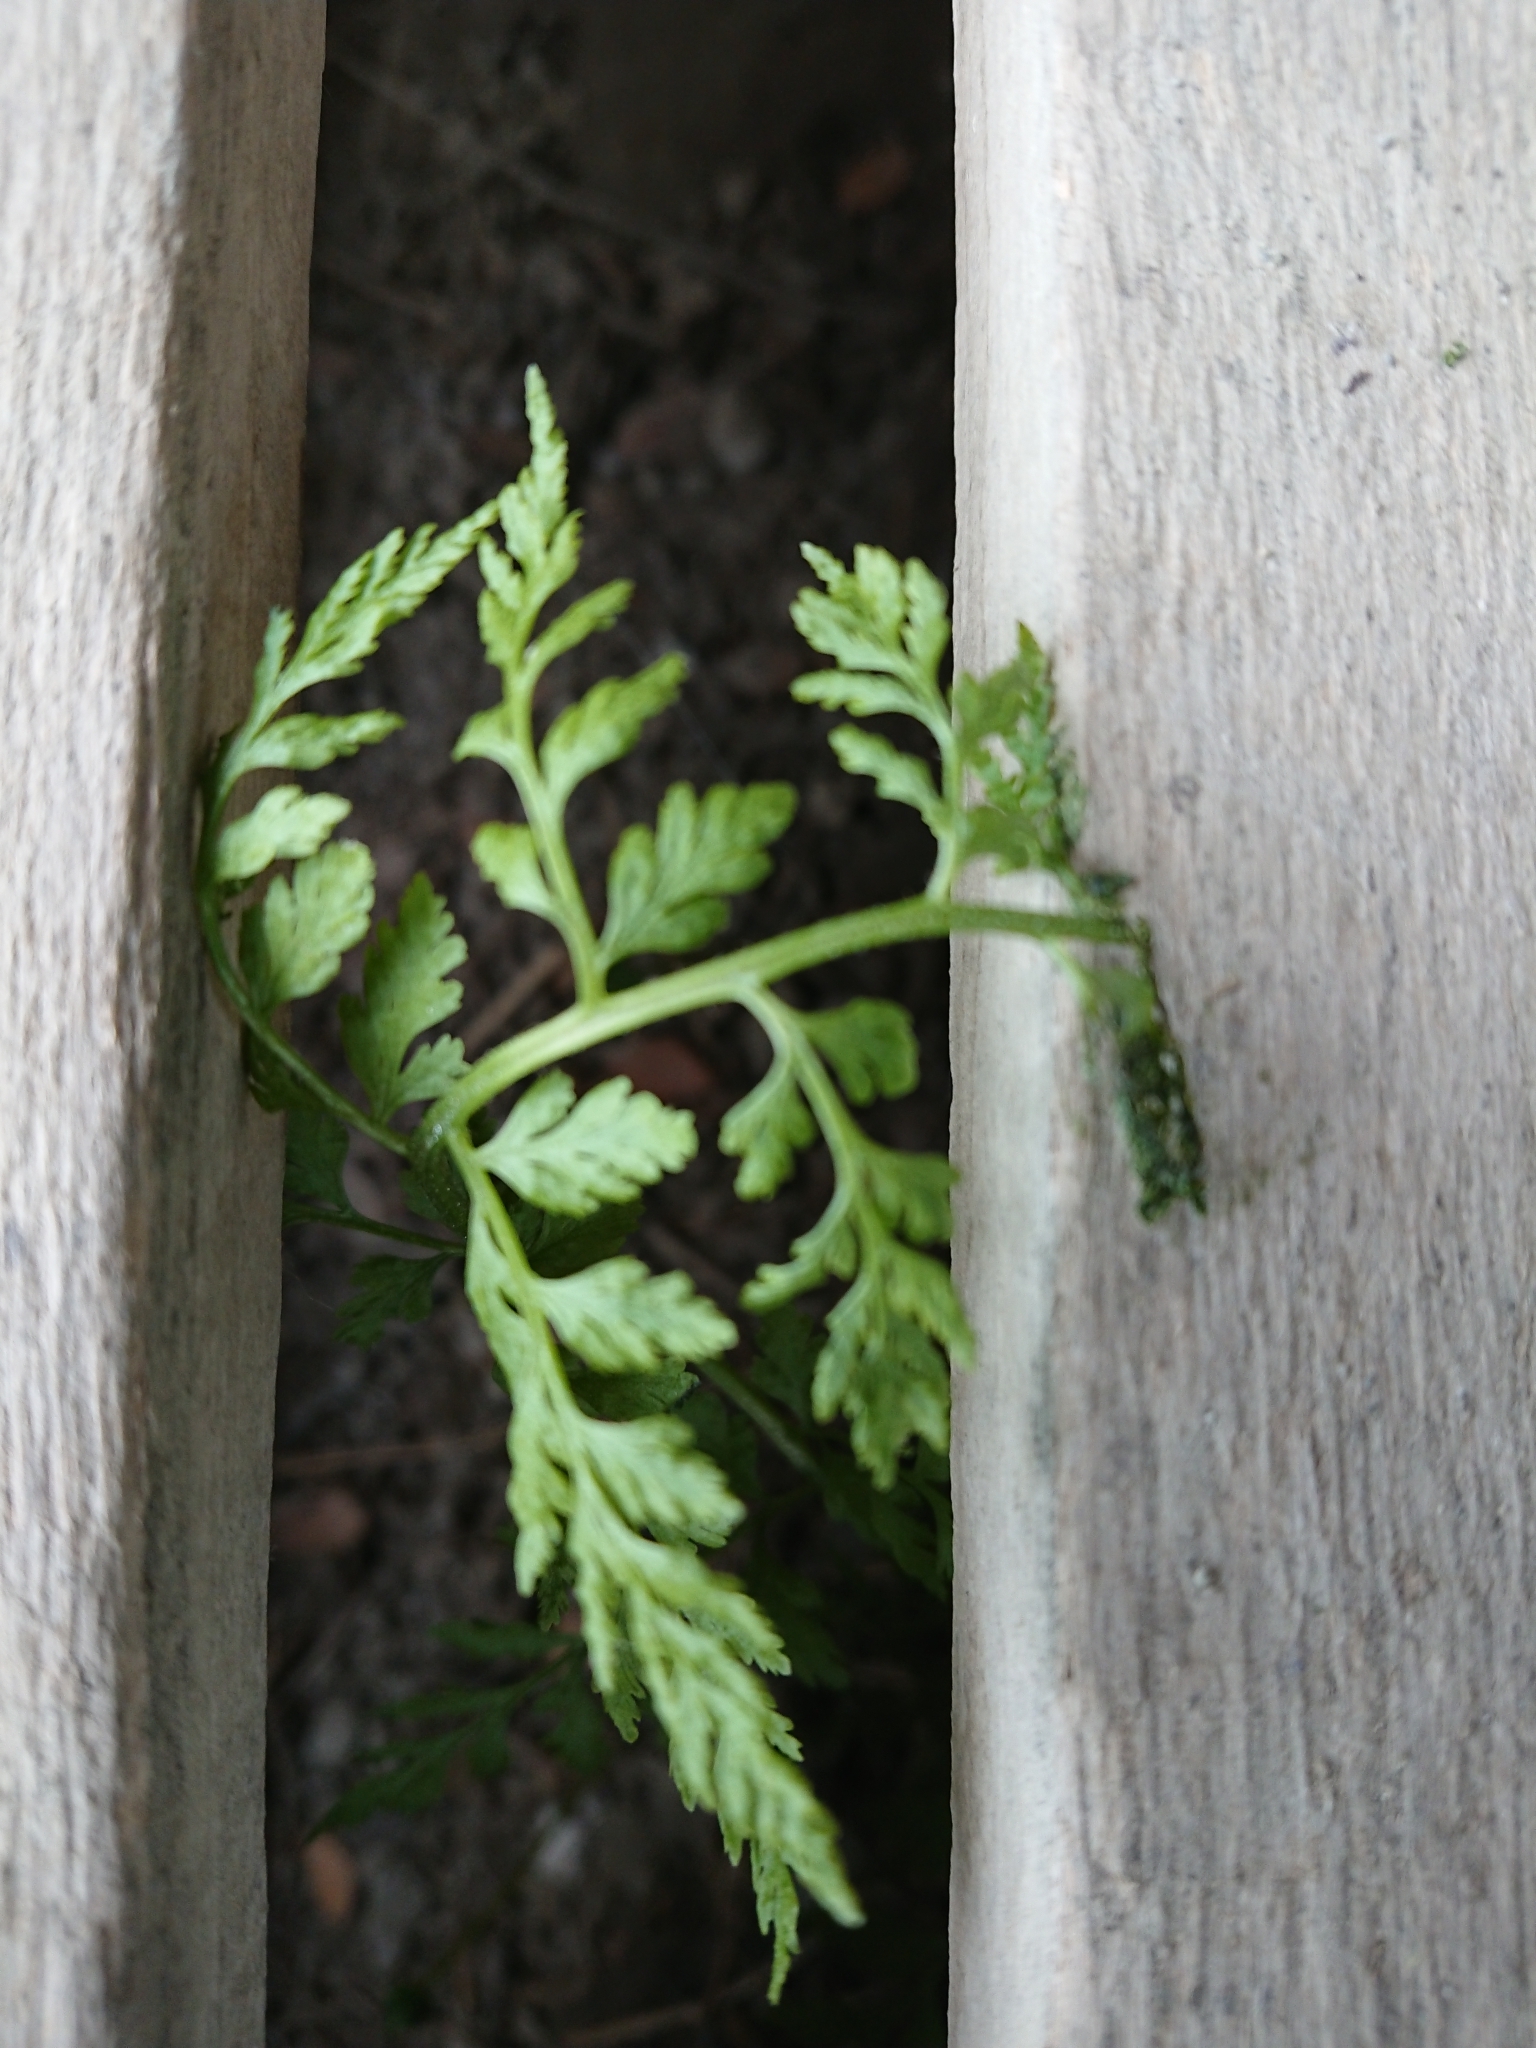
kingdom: Plantae
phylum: Tracheophyta
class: Polypodiopsida
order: Polypodiales
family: Cystopteridaceae
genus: Cystopteris
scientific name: Cystopteris fragilis
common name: Brittle bladder fern
